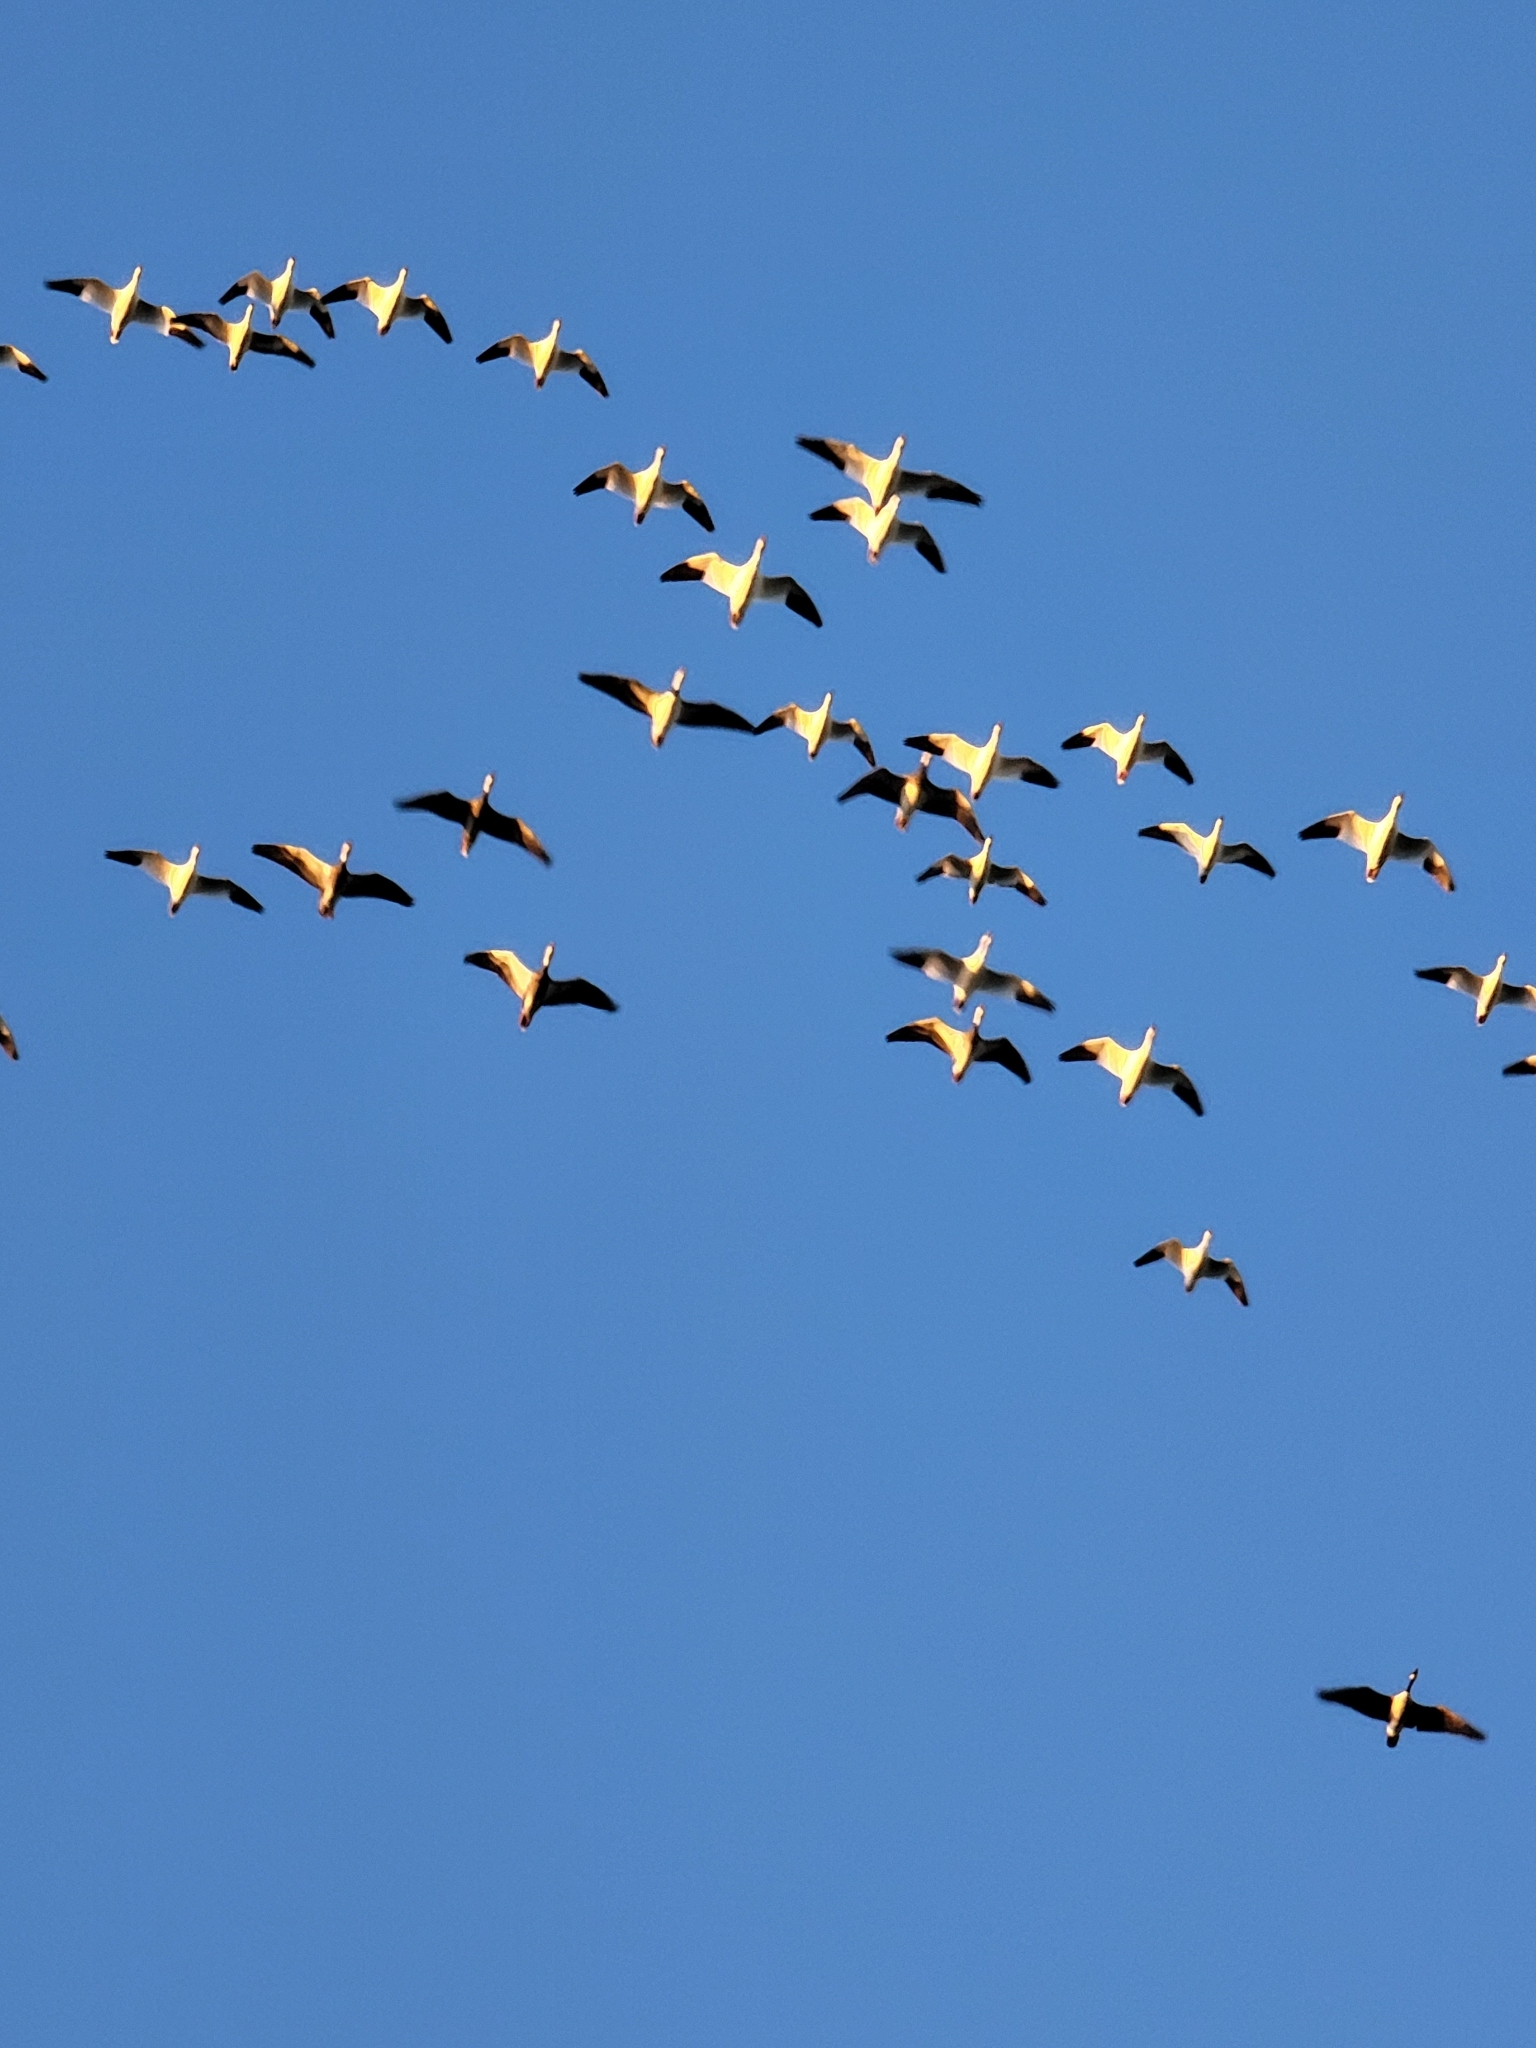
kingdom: Animalia
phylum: Chordata
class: Aves
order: Anseriformes
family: Anatidae
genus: Anser
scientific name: Anser rossii
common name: Ross's goose
